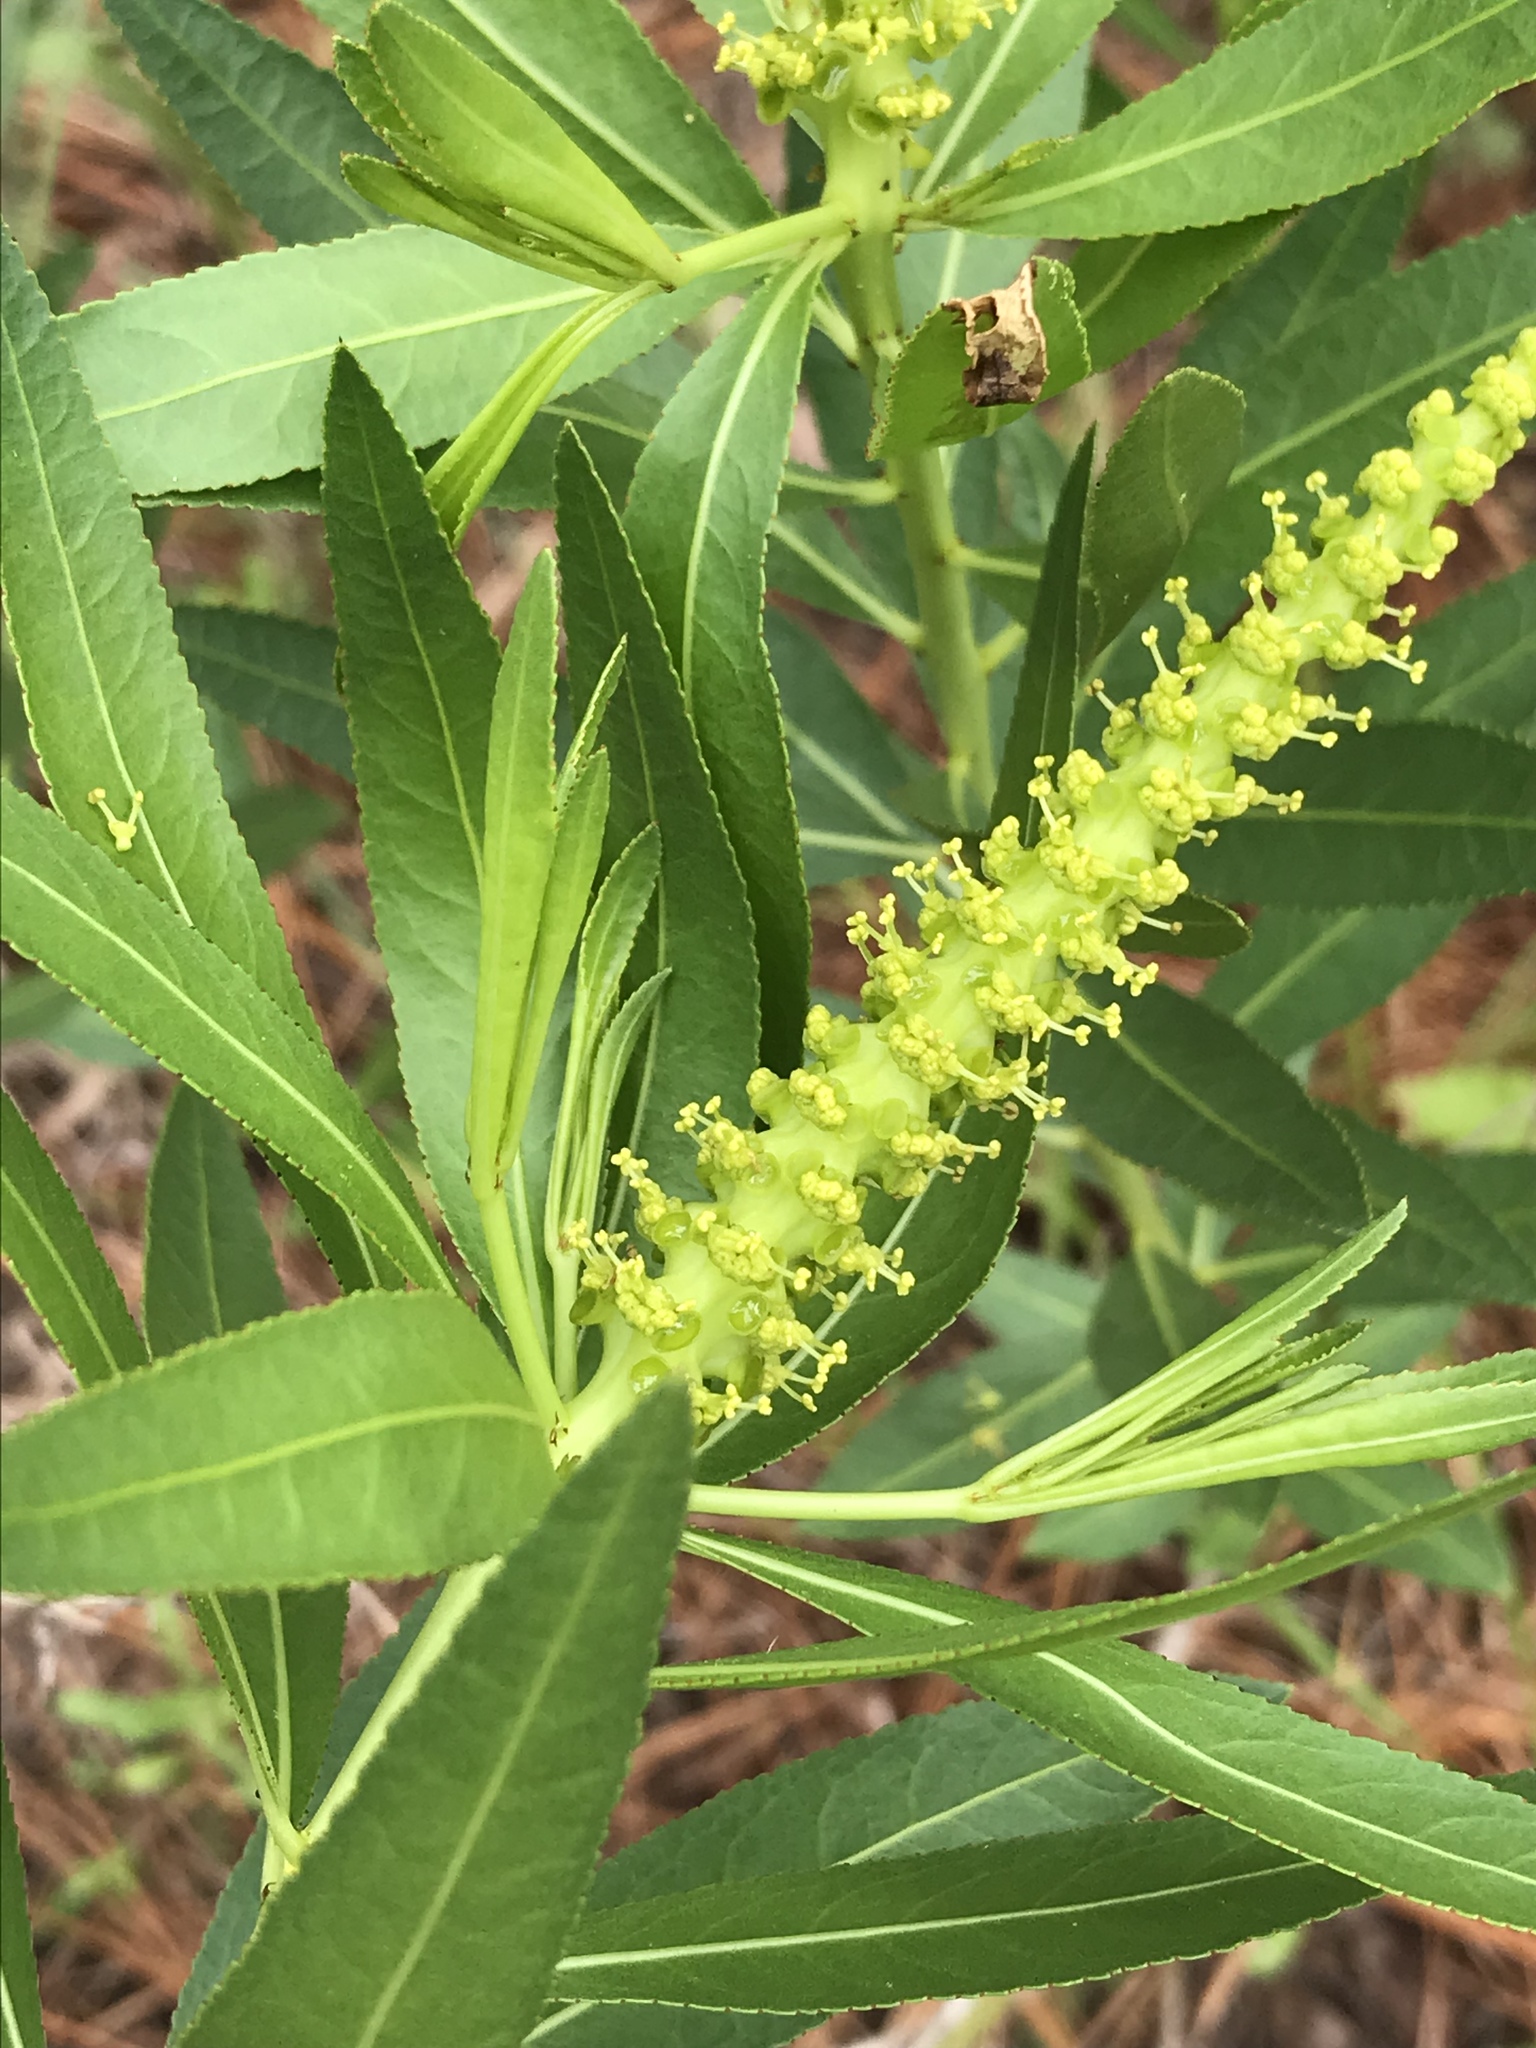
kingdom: Plantae
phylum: Tracheophyta
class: Magnoliopsida
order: Malpighiales
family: Euphorbiaceae
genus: Stillingia
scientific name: Stillingia sylvatica
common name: Queen's-delight
